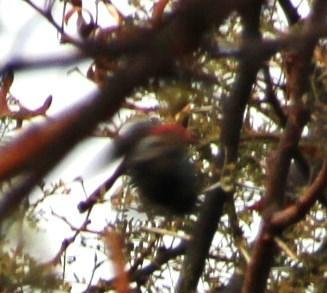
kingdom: Animalia
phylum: Chordata
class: Aves
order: Piciformes
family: Picidae
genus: Dendropicos
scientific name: Dendropicos fuscescens
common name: Cardinal woodpecker
